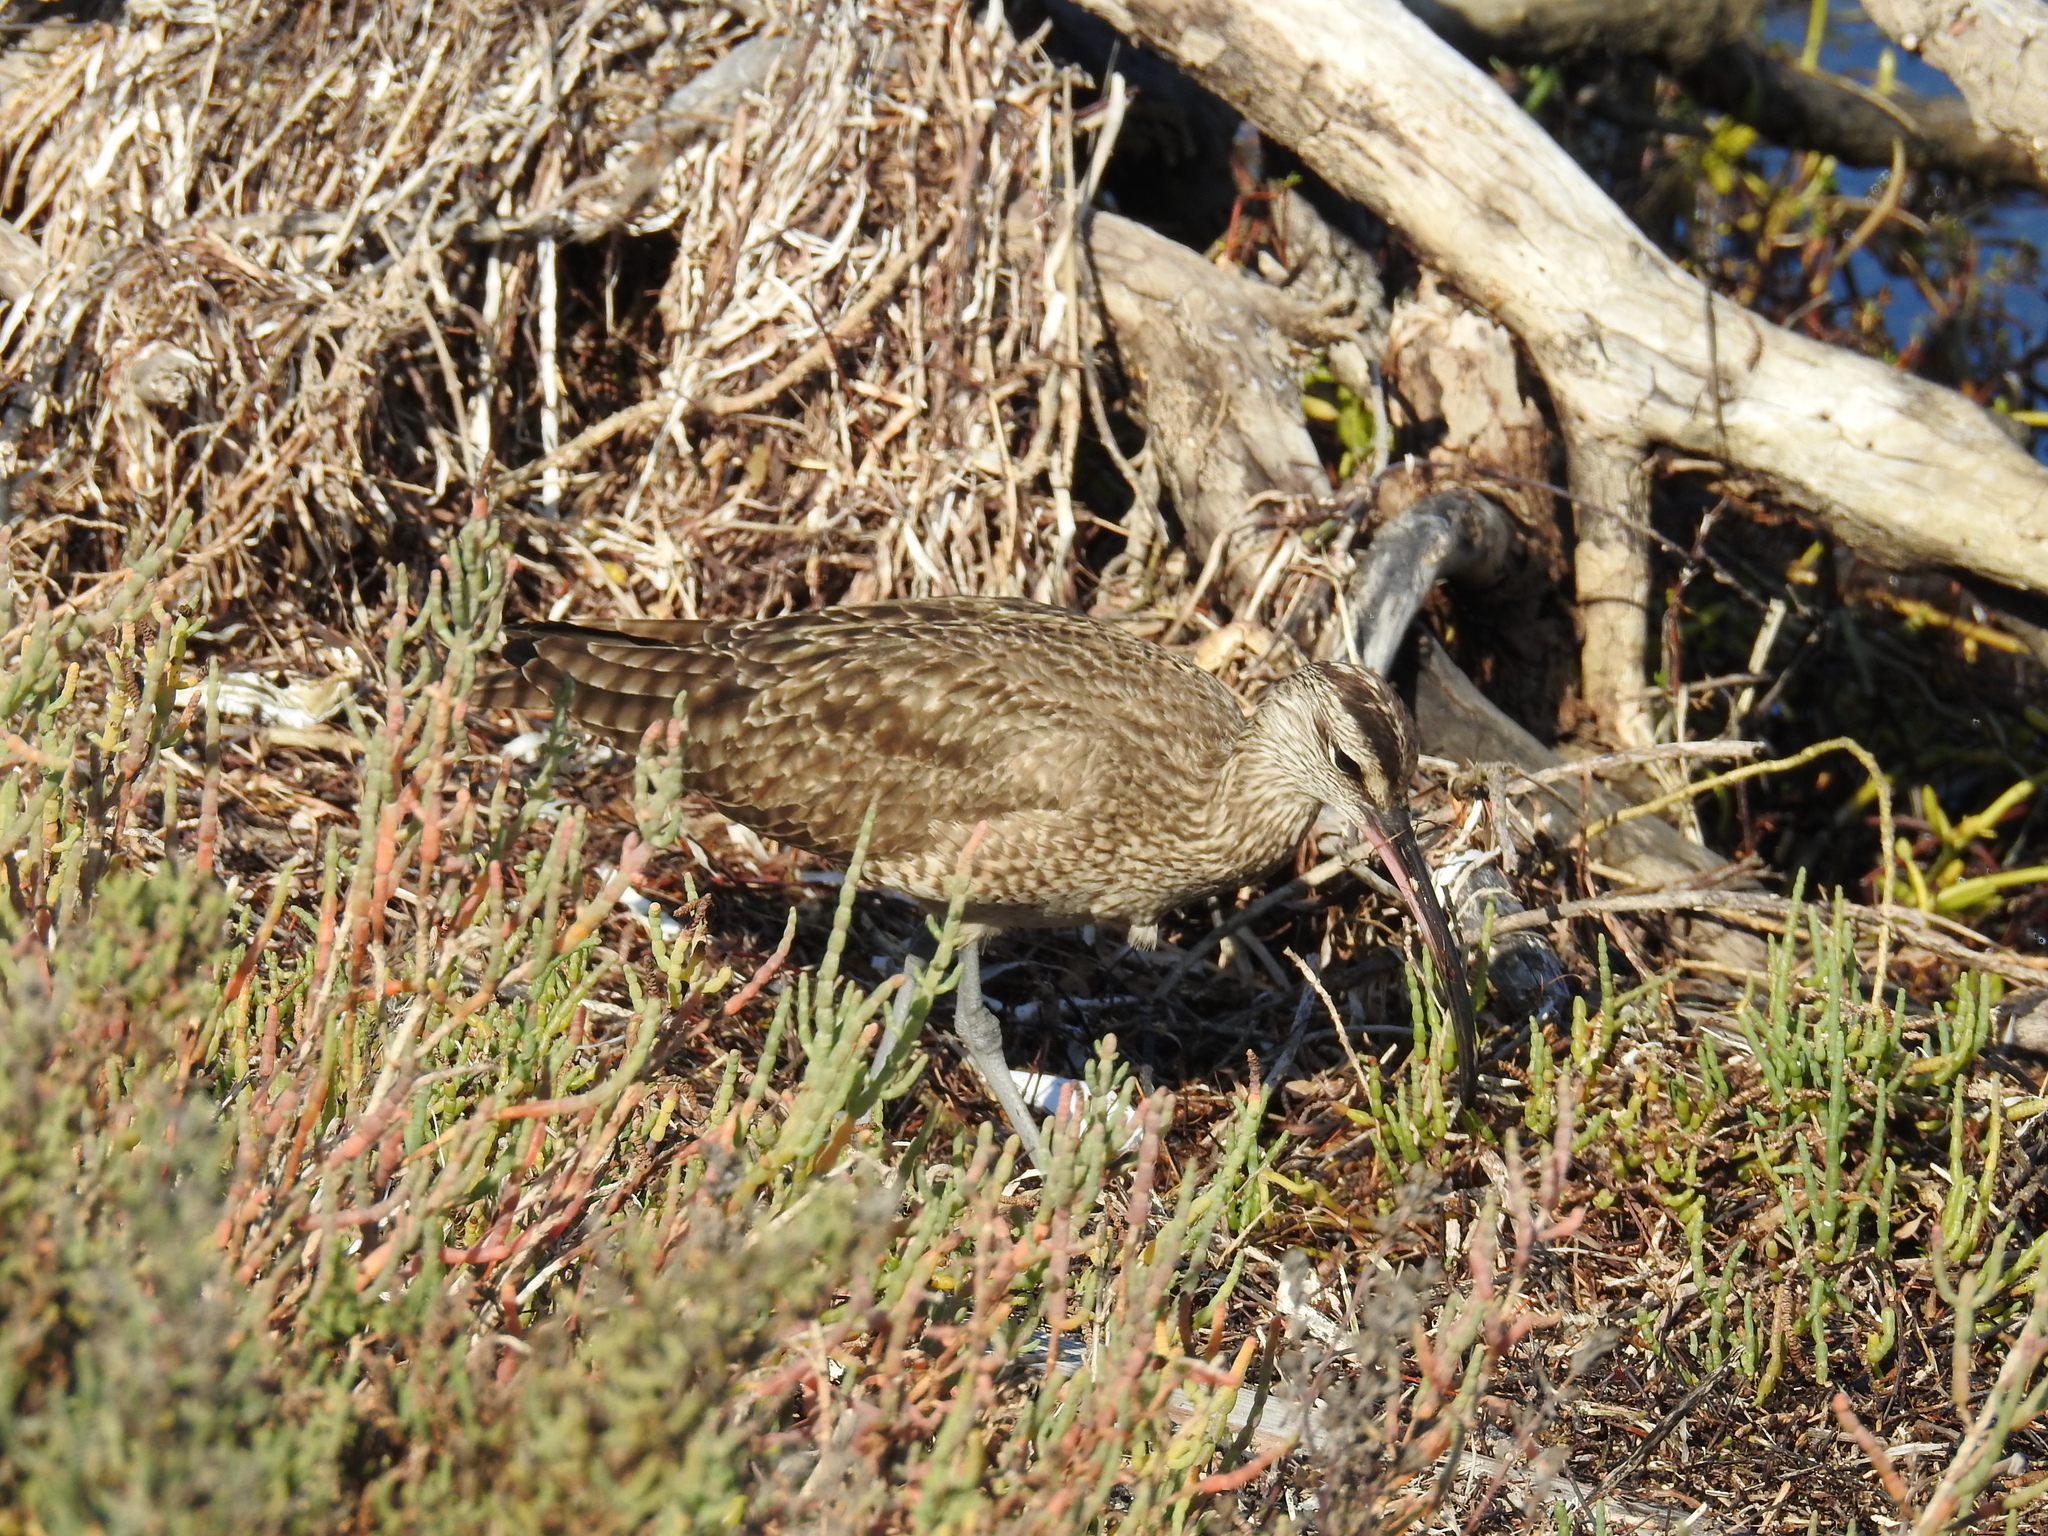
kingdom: Animalia
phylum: Chordata
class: Aves
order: Charadriiformes
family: Scolopacidae
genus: Numenius
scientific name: Numenius phaeopus
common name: Whimbrel
